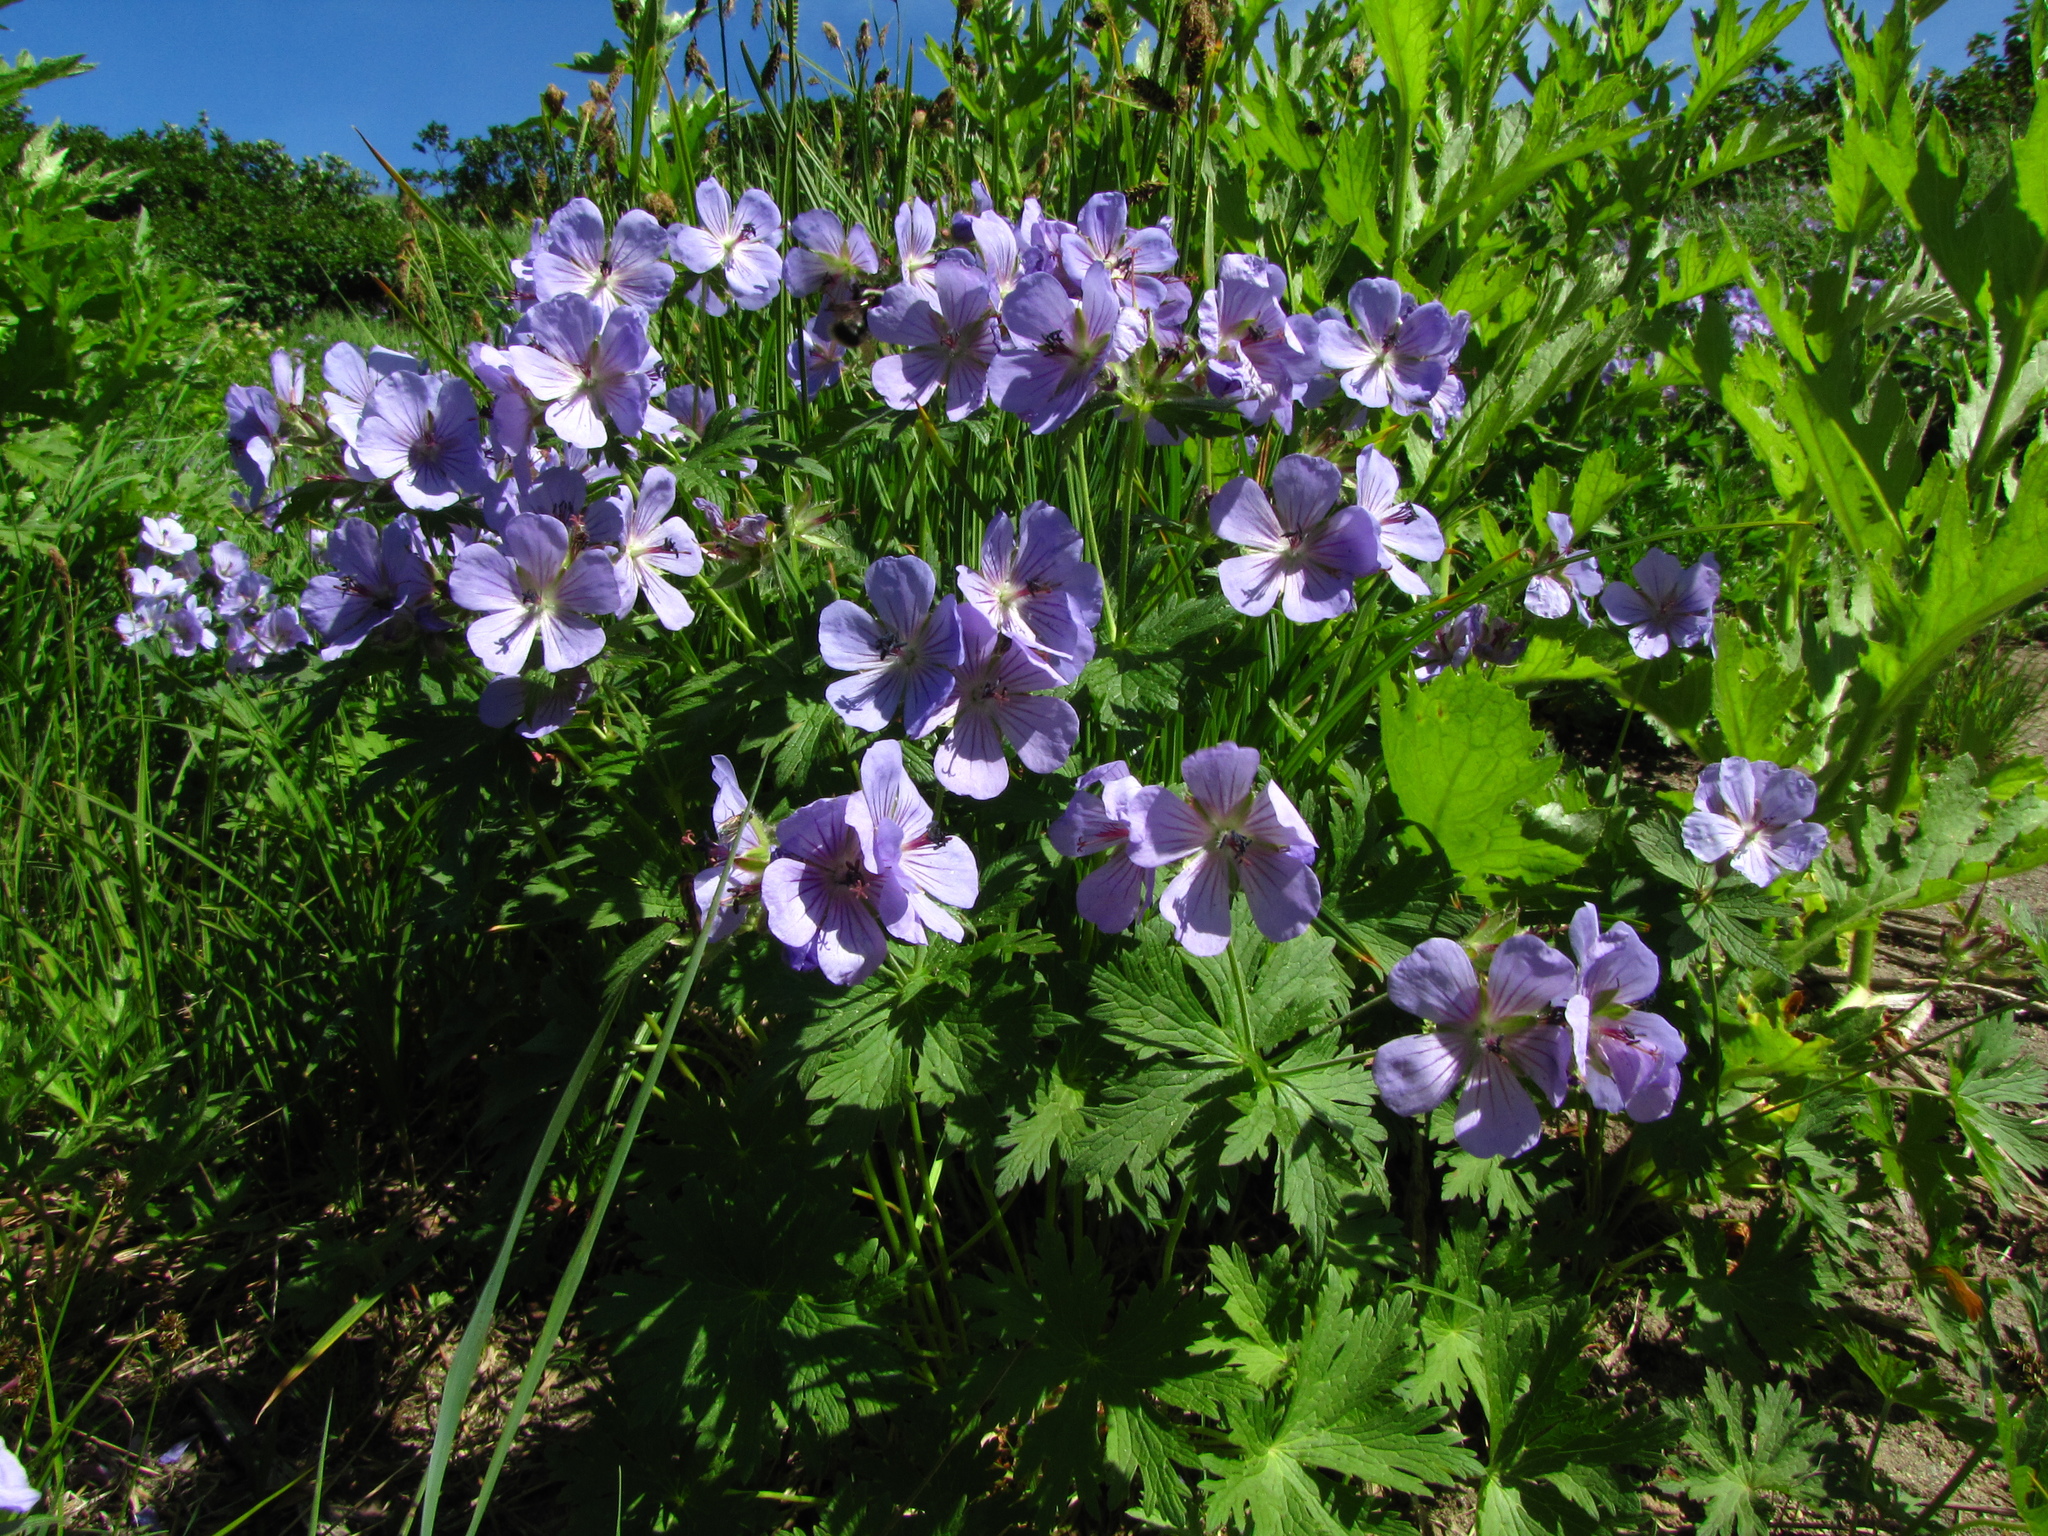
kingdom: Plantae
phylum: Tracheophyta
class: Magnoliopsida
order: Geraniales
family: Geraniaceae
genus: Geranium
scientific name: Geranium erianthum
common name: Northern crane's-bill
